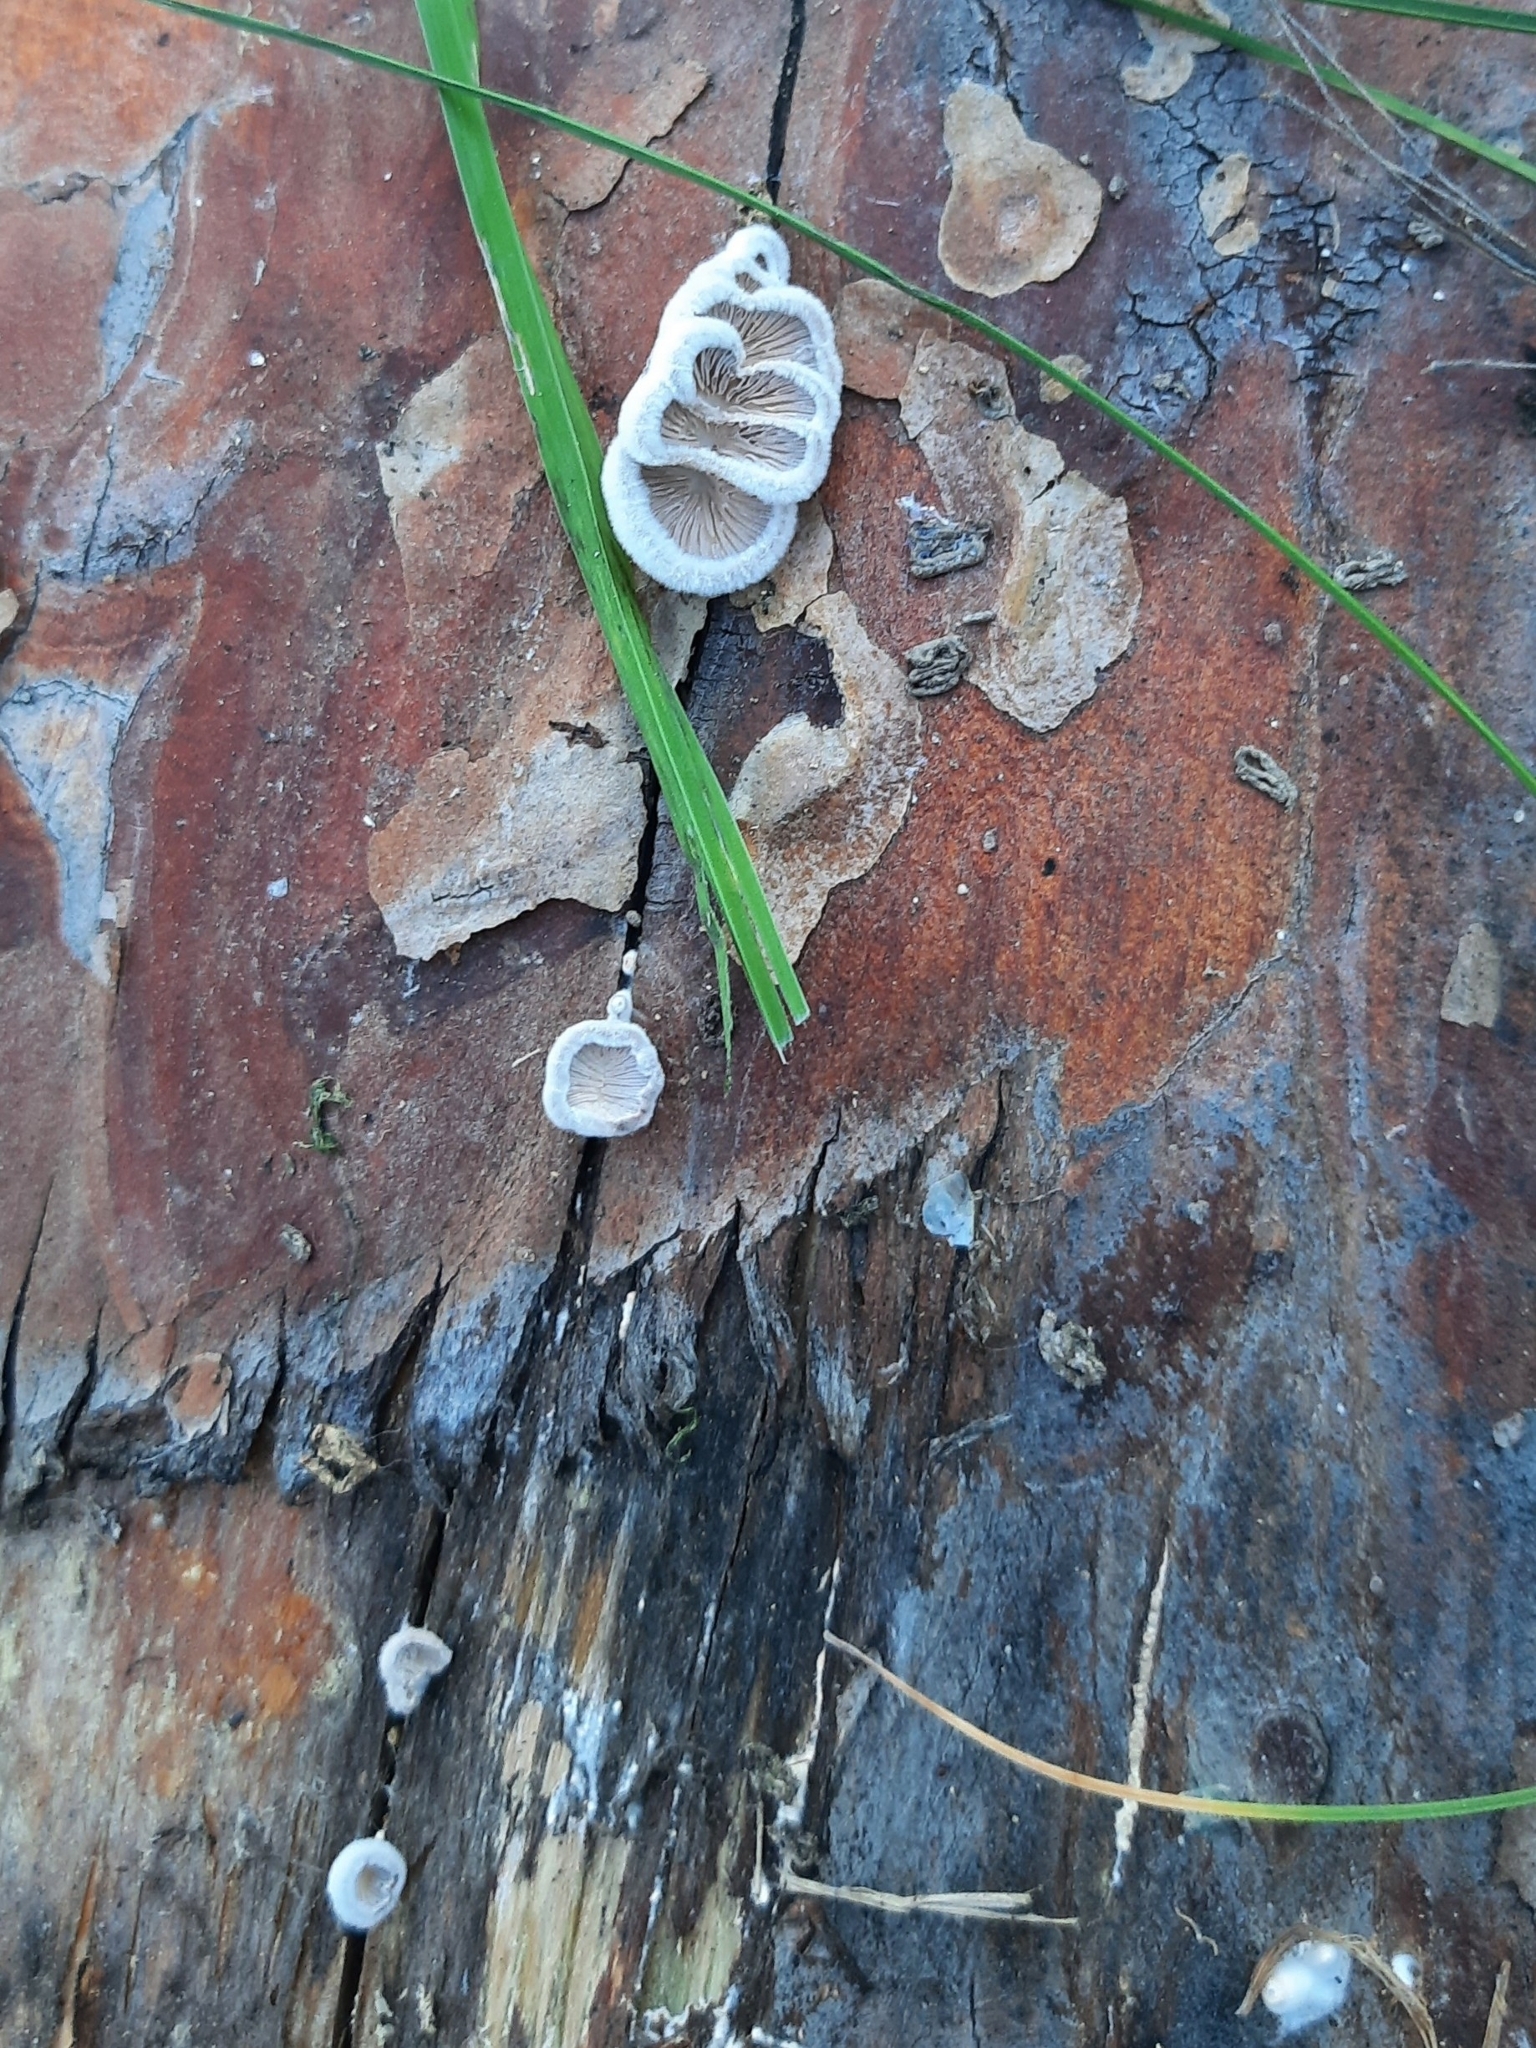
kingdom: Fungi
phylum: Basidiomycota
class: Agaricomycetes
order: Agaricales
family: Schizophyllaceae
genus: Schizophyllum
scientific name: Schizophyllum commune
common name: Common porecrust
